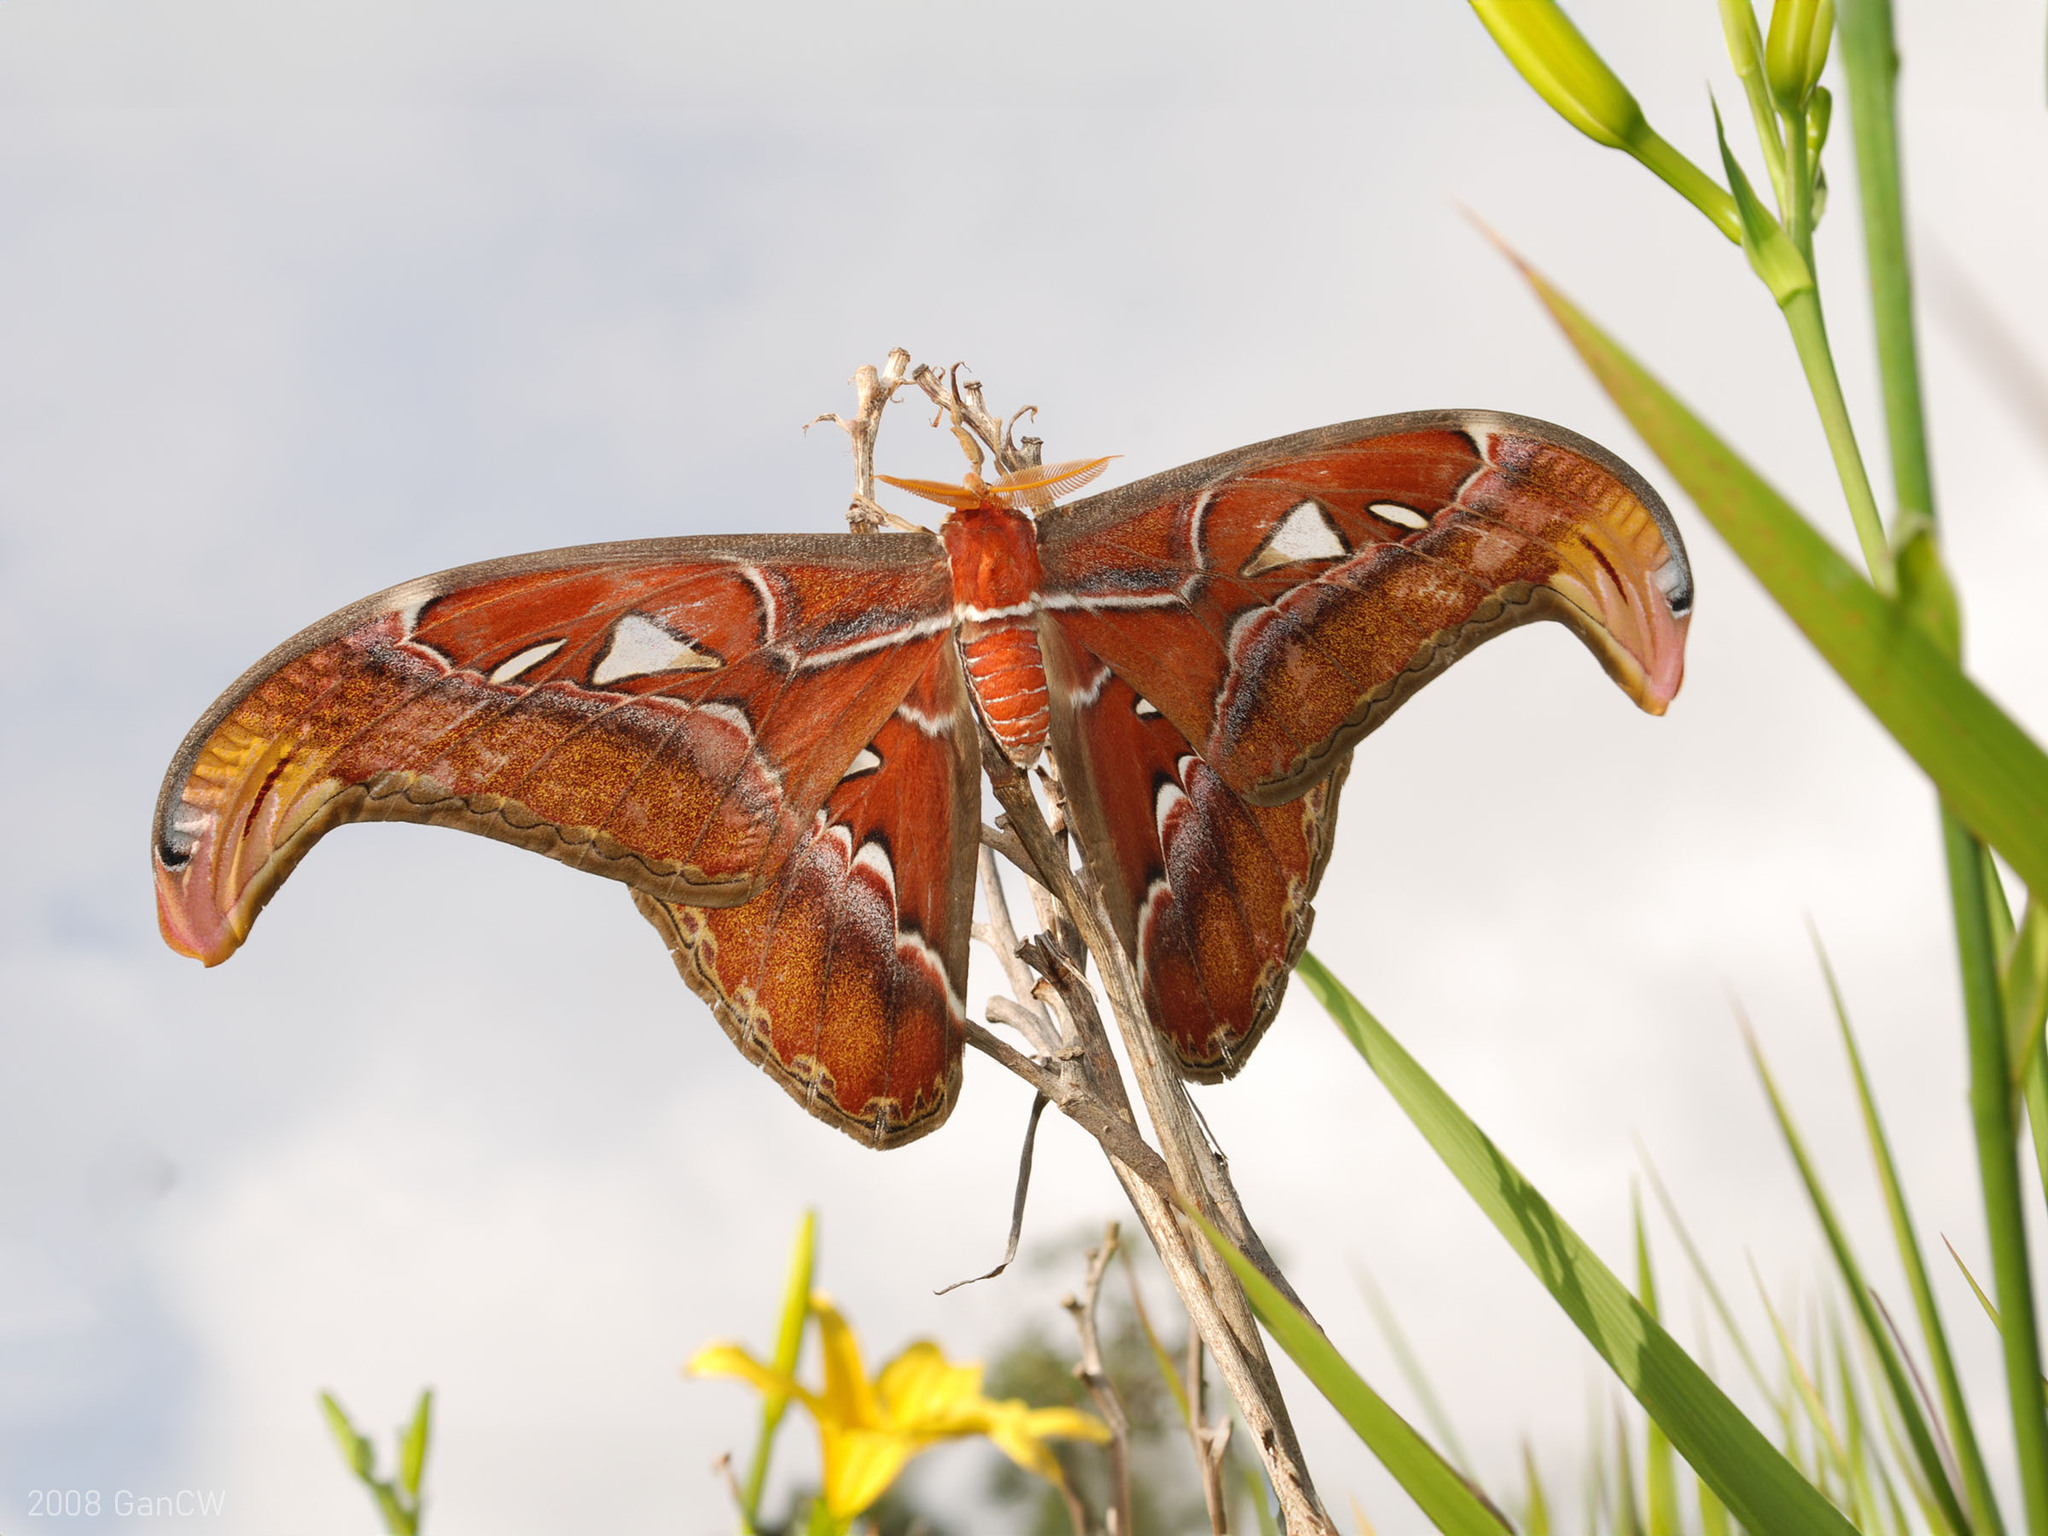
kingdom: Animalia
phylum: Arthropoda
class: Insecta
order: Lepidoptera
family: Saturniidae
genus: Attacus
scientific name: Attacus atlas
